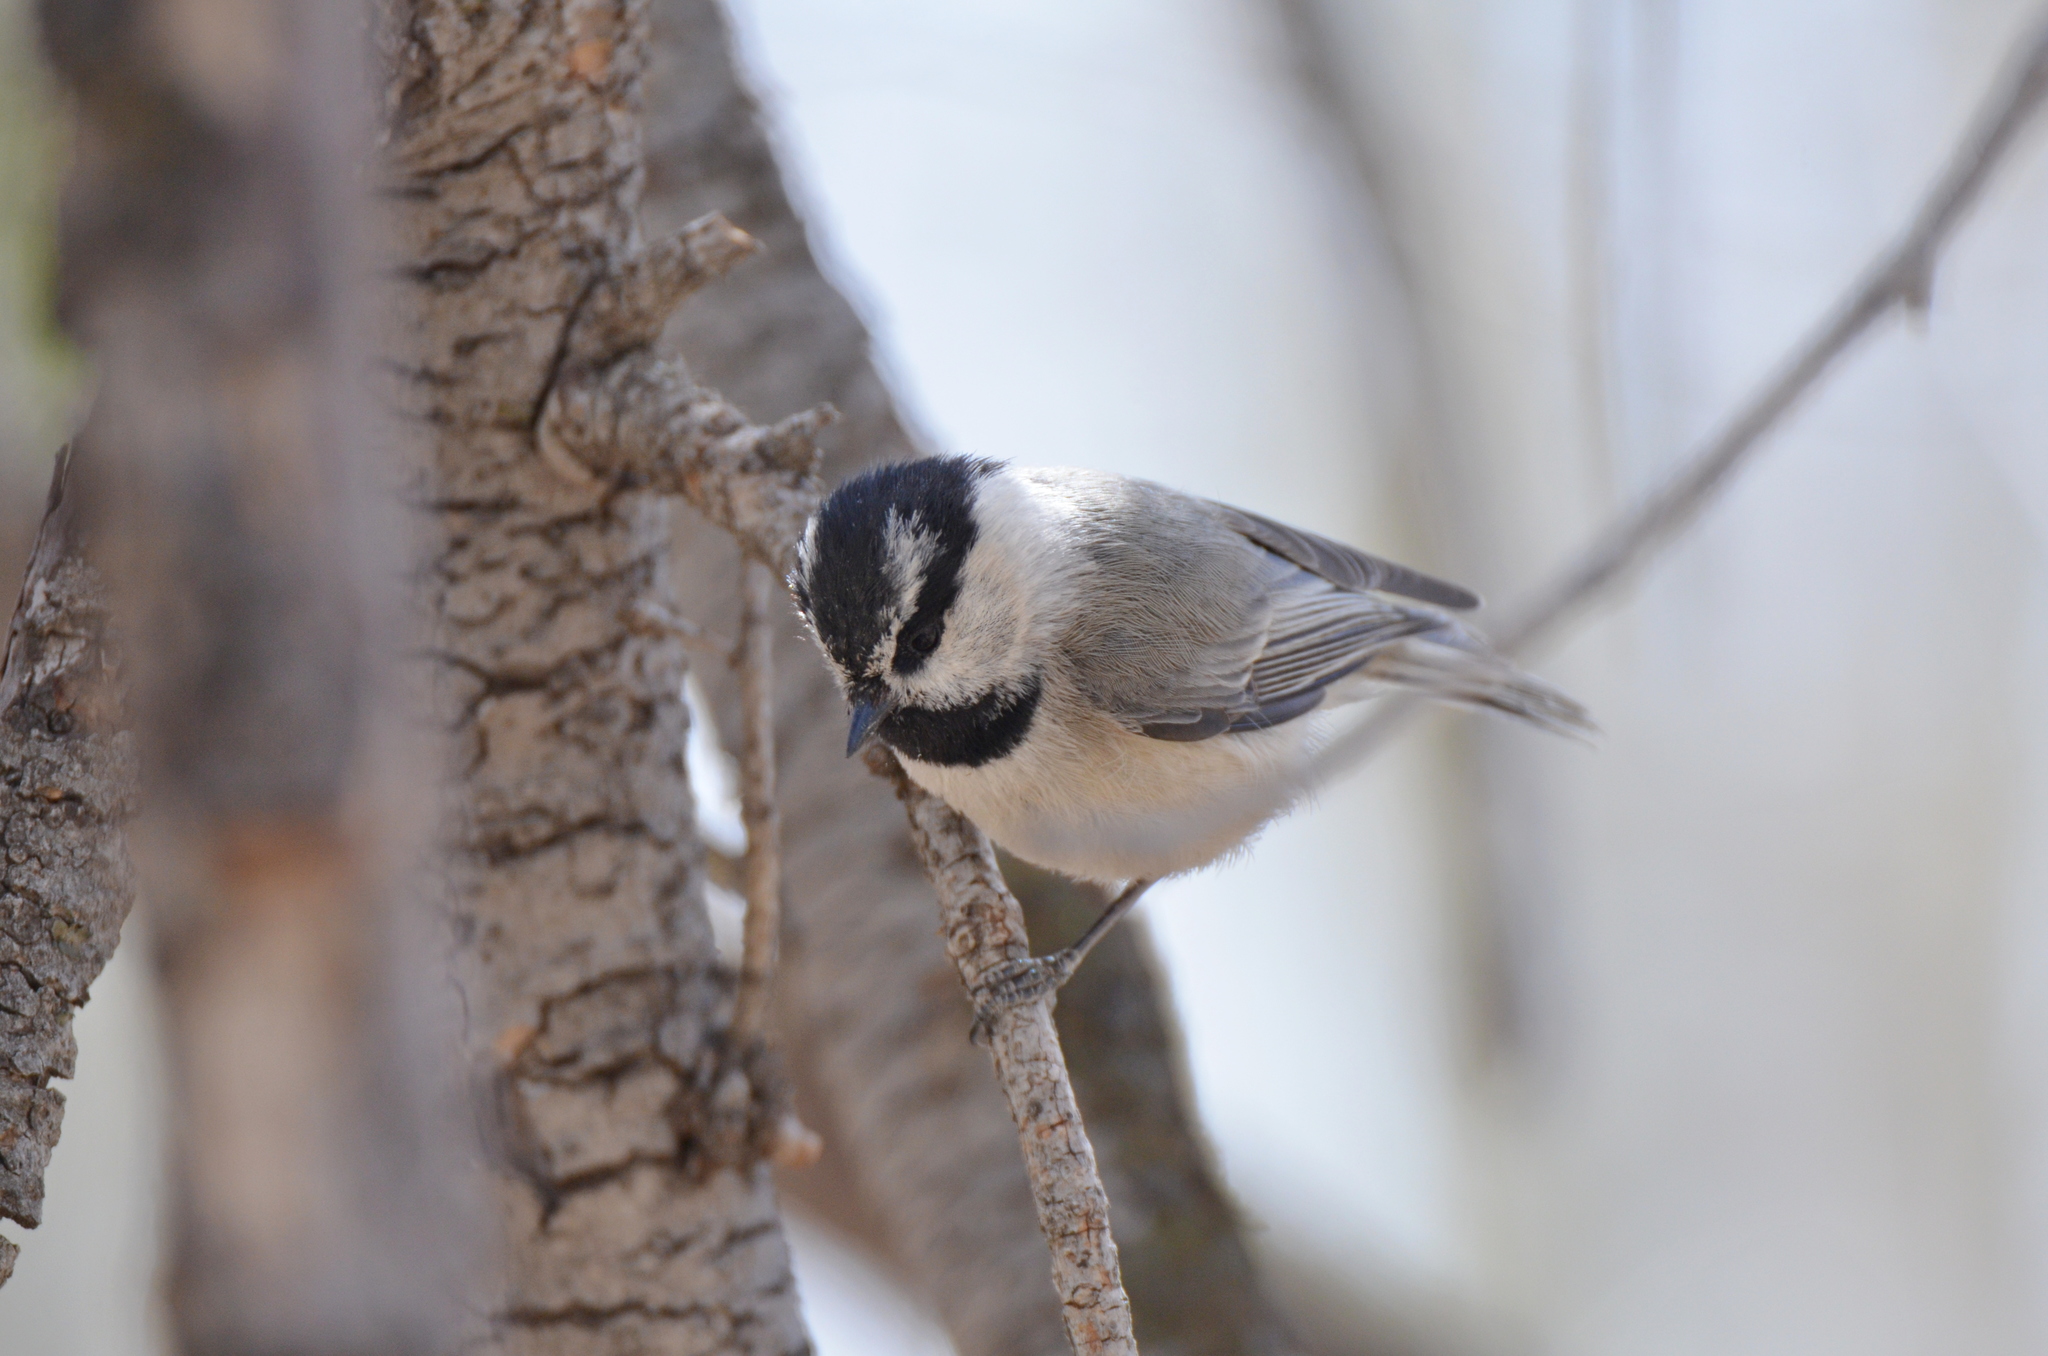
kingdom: Animalia
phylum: Chordata
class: Aves
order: Passeriformes
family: Paridae
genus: Poecile
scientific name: Poecile gambeli
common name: Mountain chickadee
